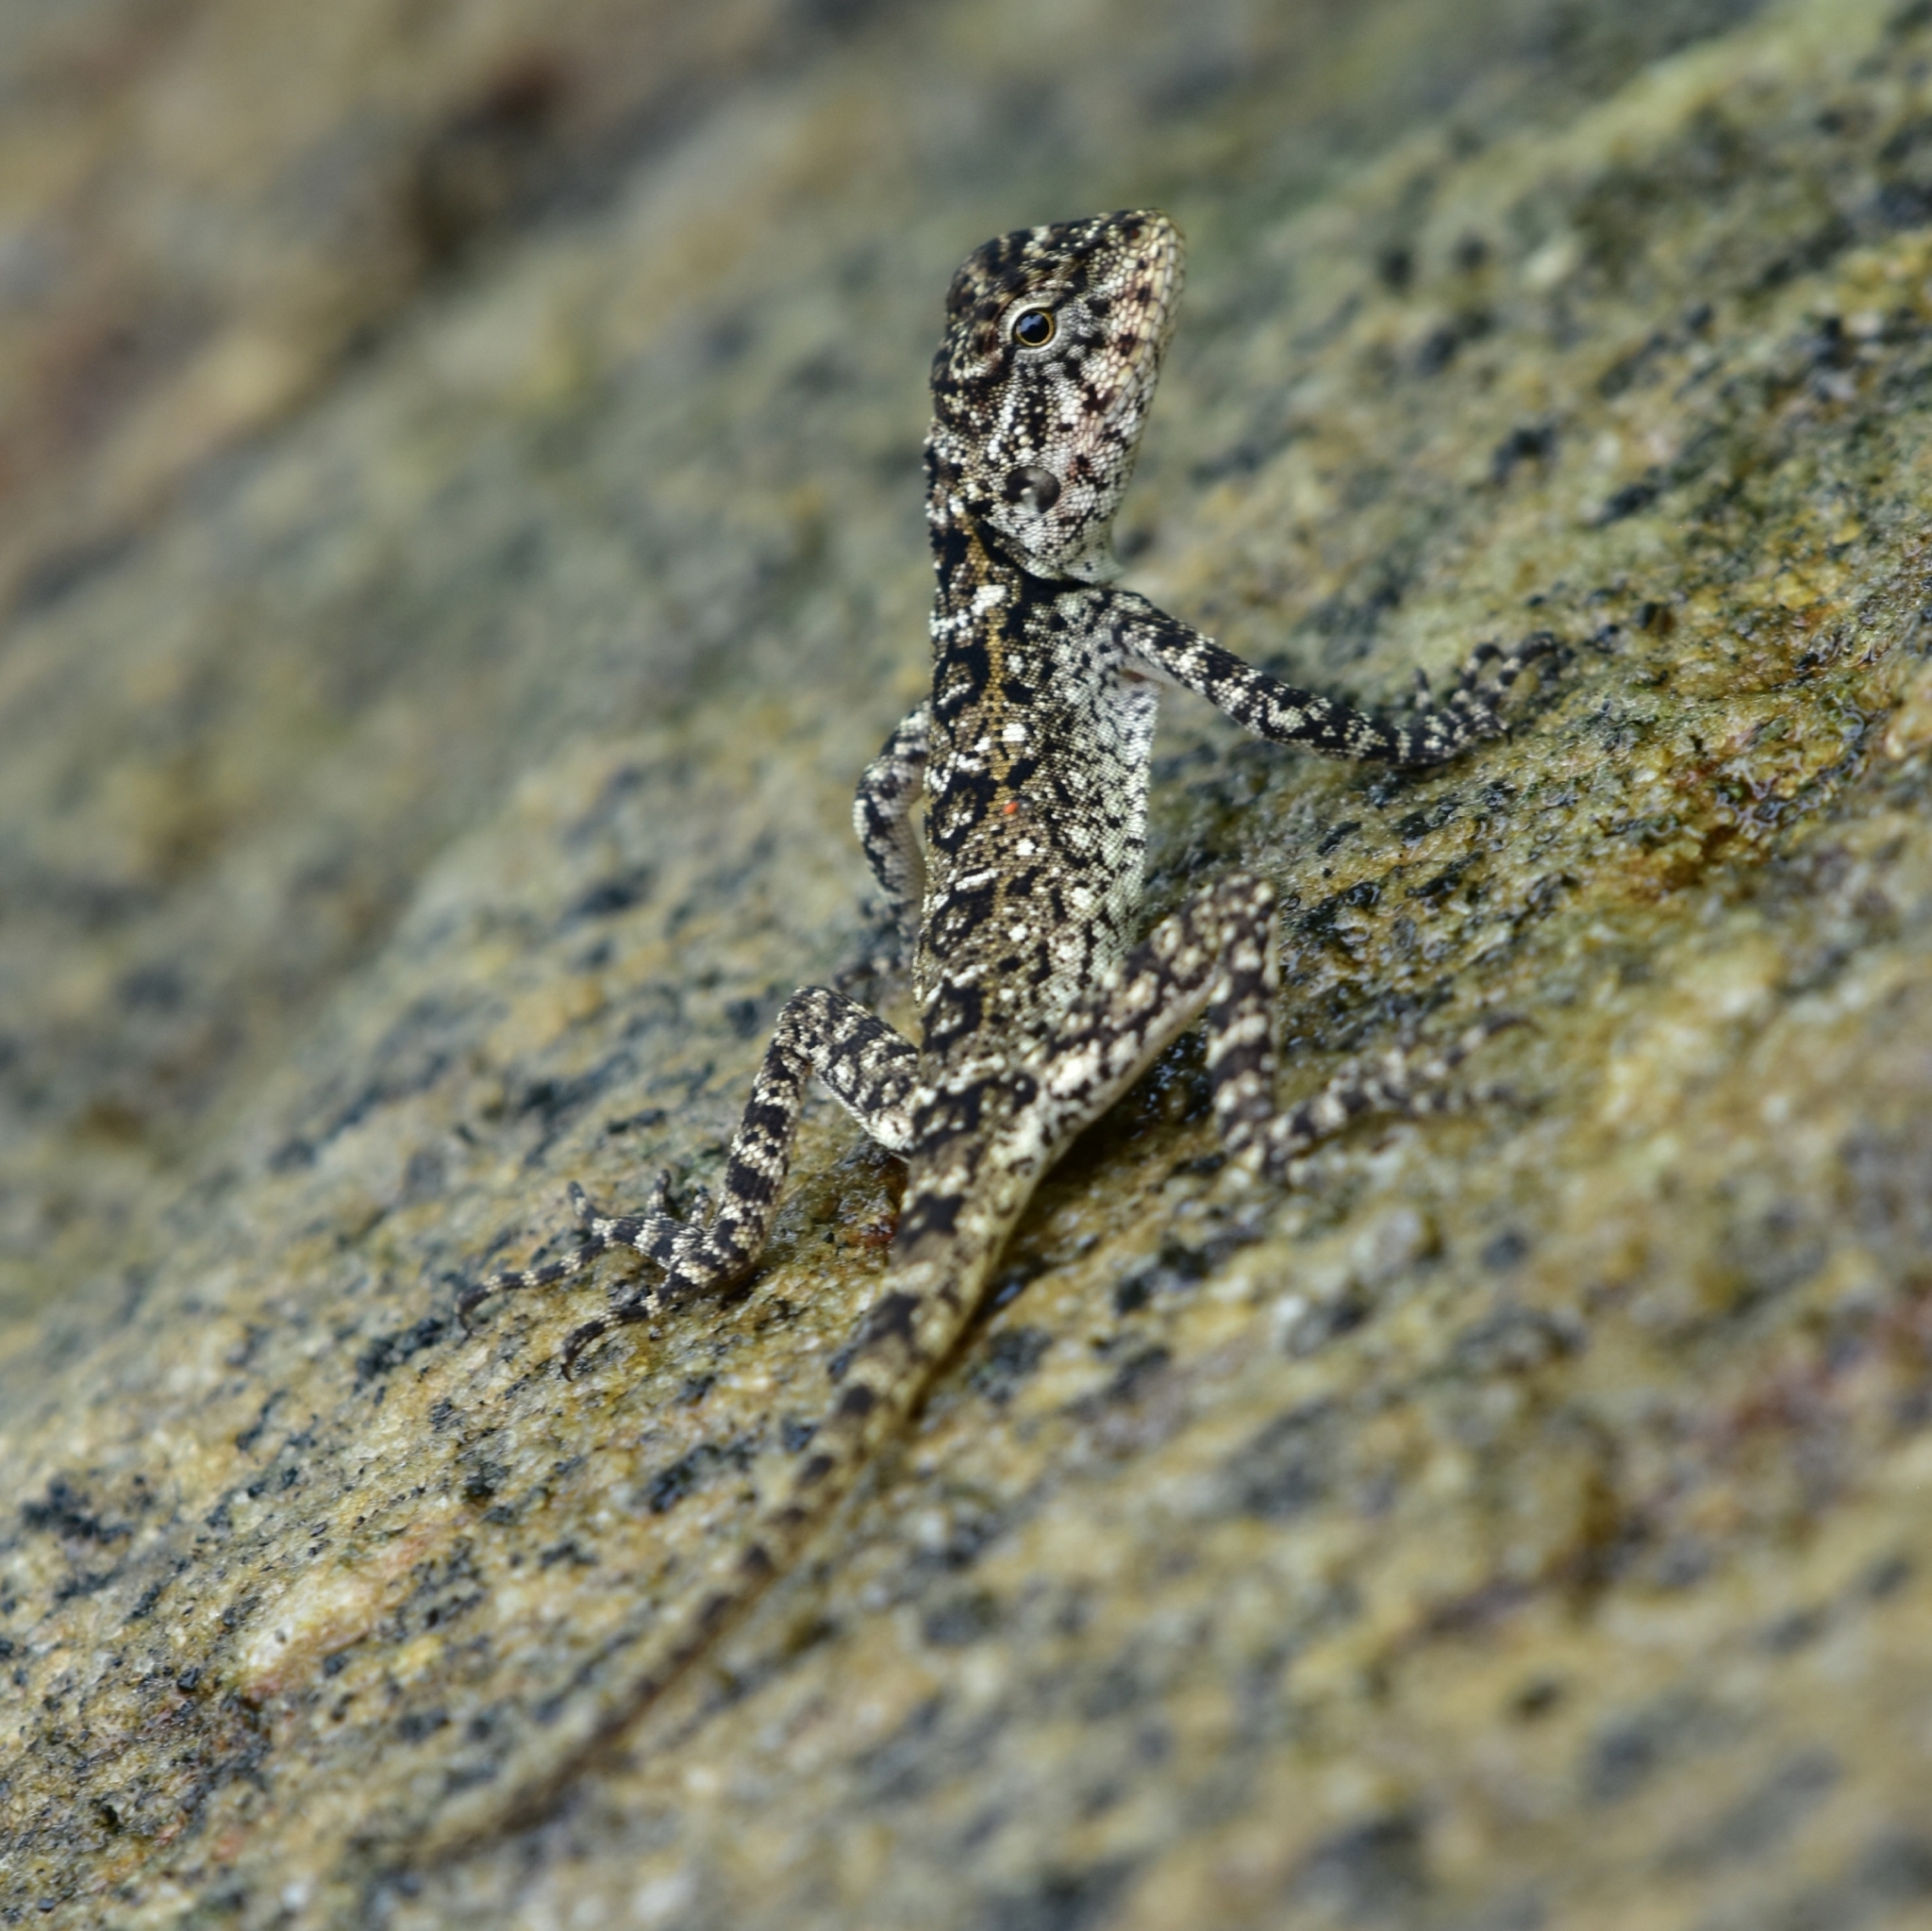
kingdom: Animalia
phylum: Chordata
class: Squamata
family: Agamidae
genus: Psammophilus
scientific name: Psammophilus dorsalis
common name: South indian rock agama
